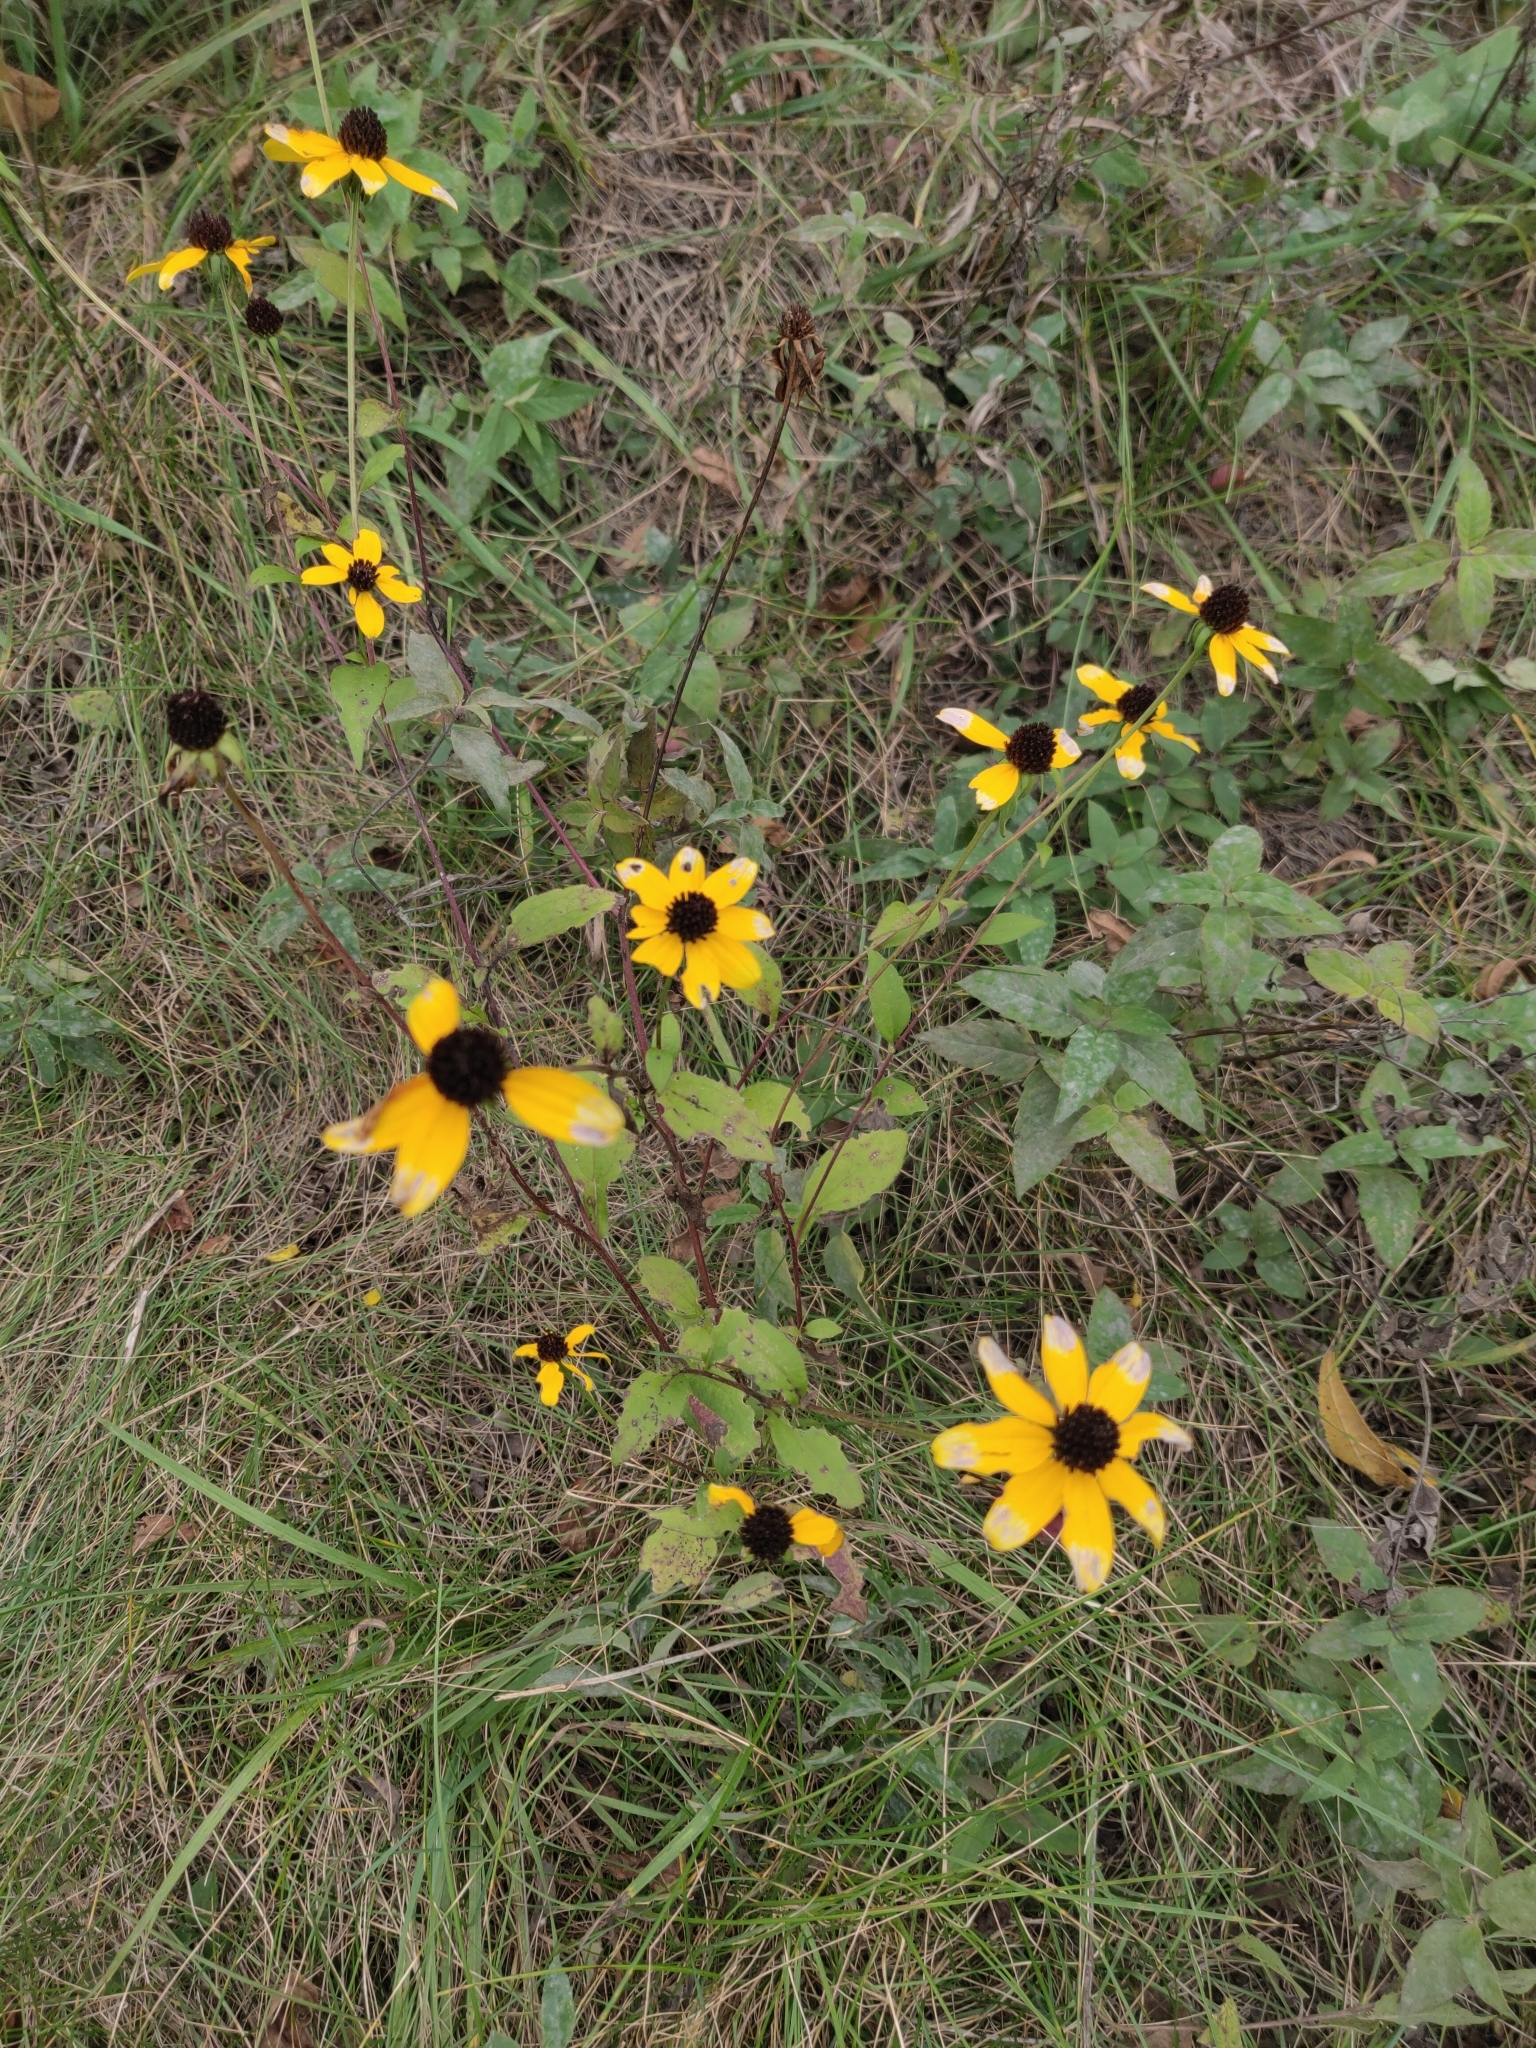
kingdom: Plantae
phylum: Tracheophyta
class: Magnoliopsida
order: Asterales
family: Asteraceae
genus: Rudbeckia
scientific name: Rudbeckia triloba
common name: Thin-leaved coneflower
